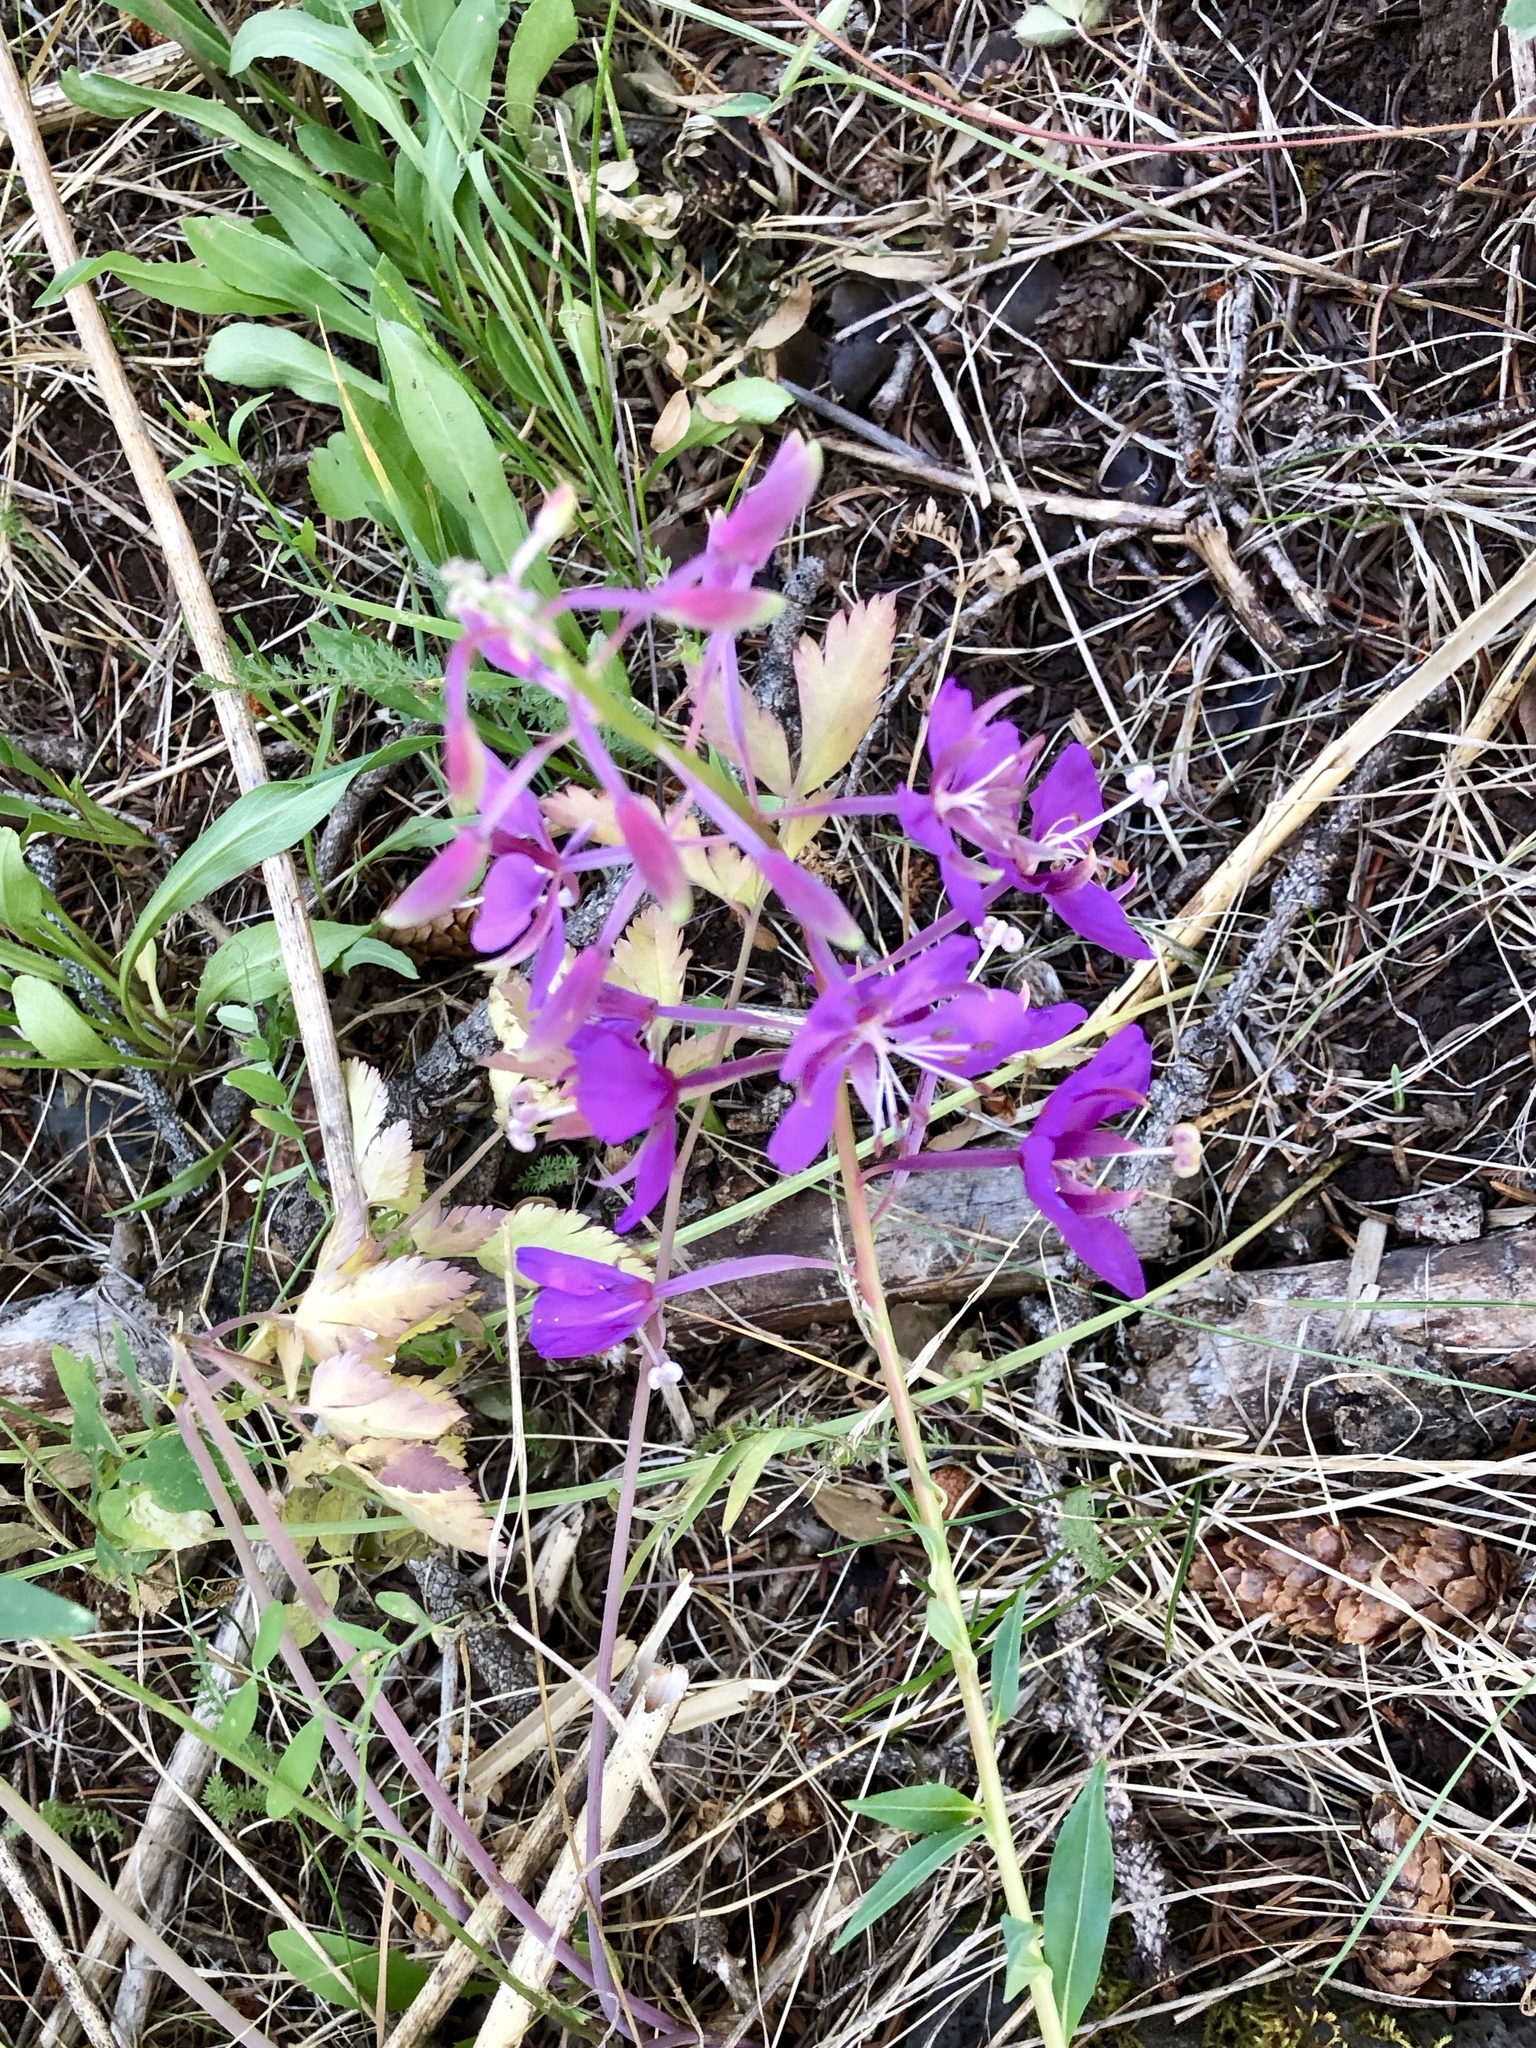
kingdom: Plantae
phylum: Tracheophyta
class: Magnoliopsida
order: Myrtales
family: Onagraceae
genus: Chamaenerion
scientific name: Chamaenerion angustifolium
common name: Fireweed
